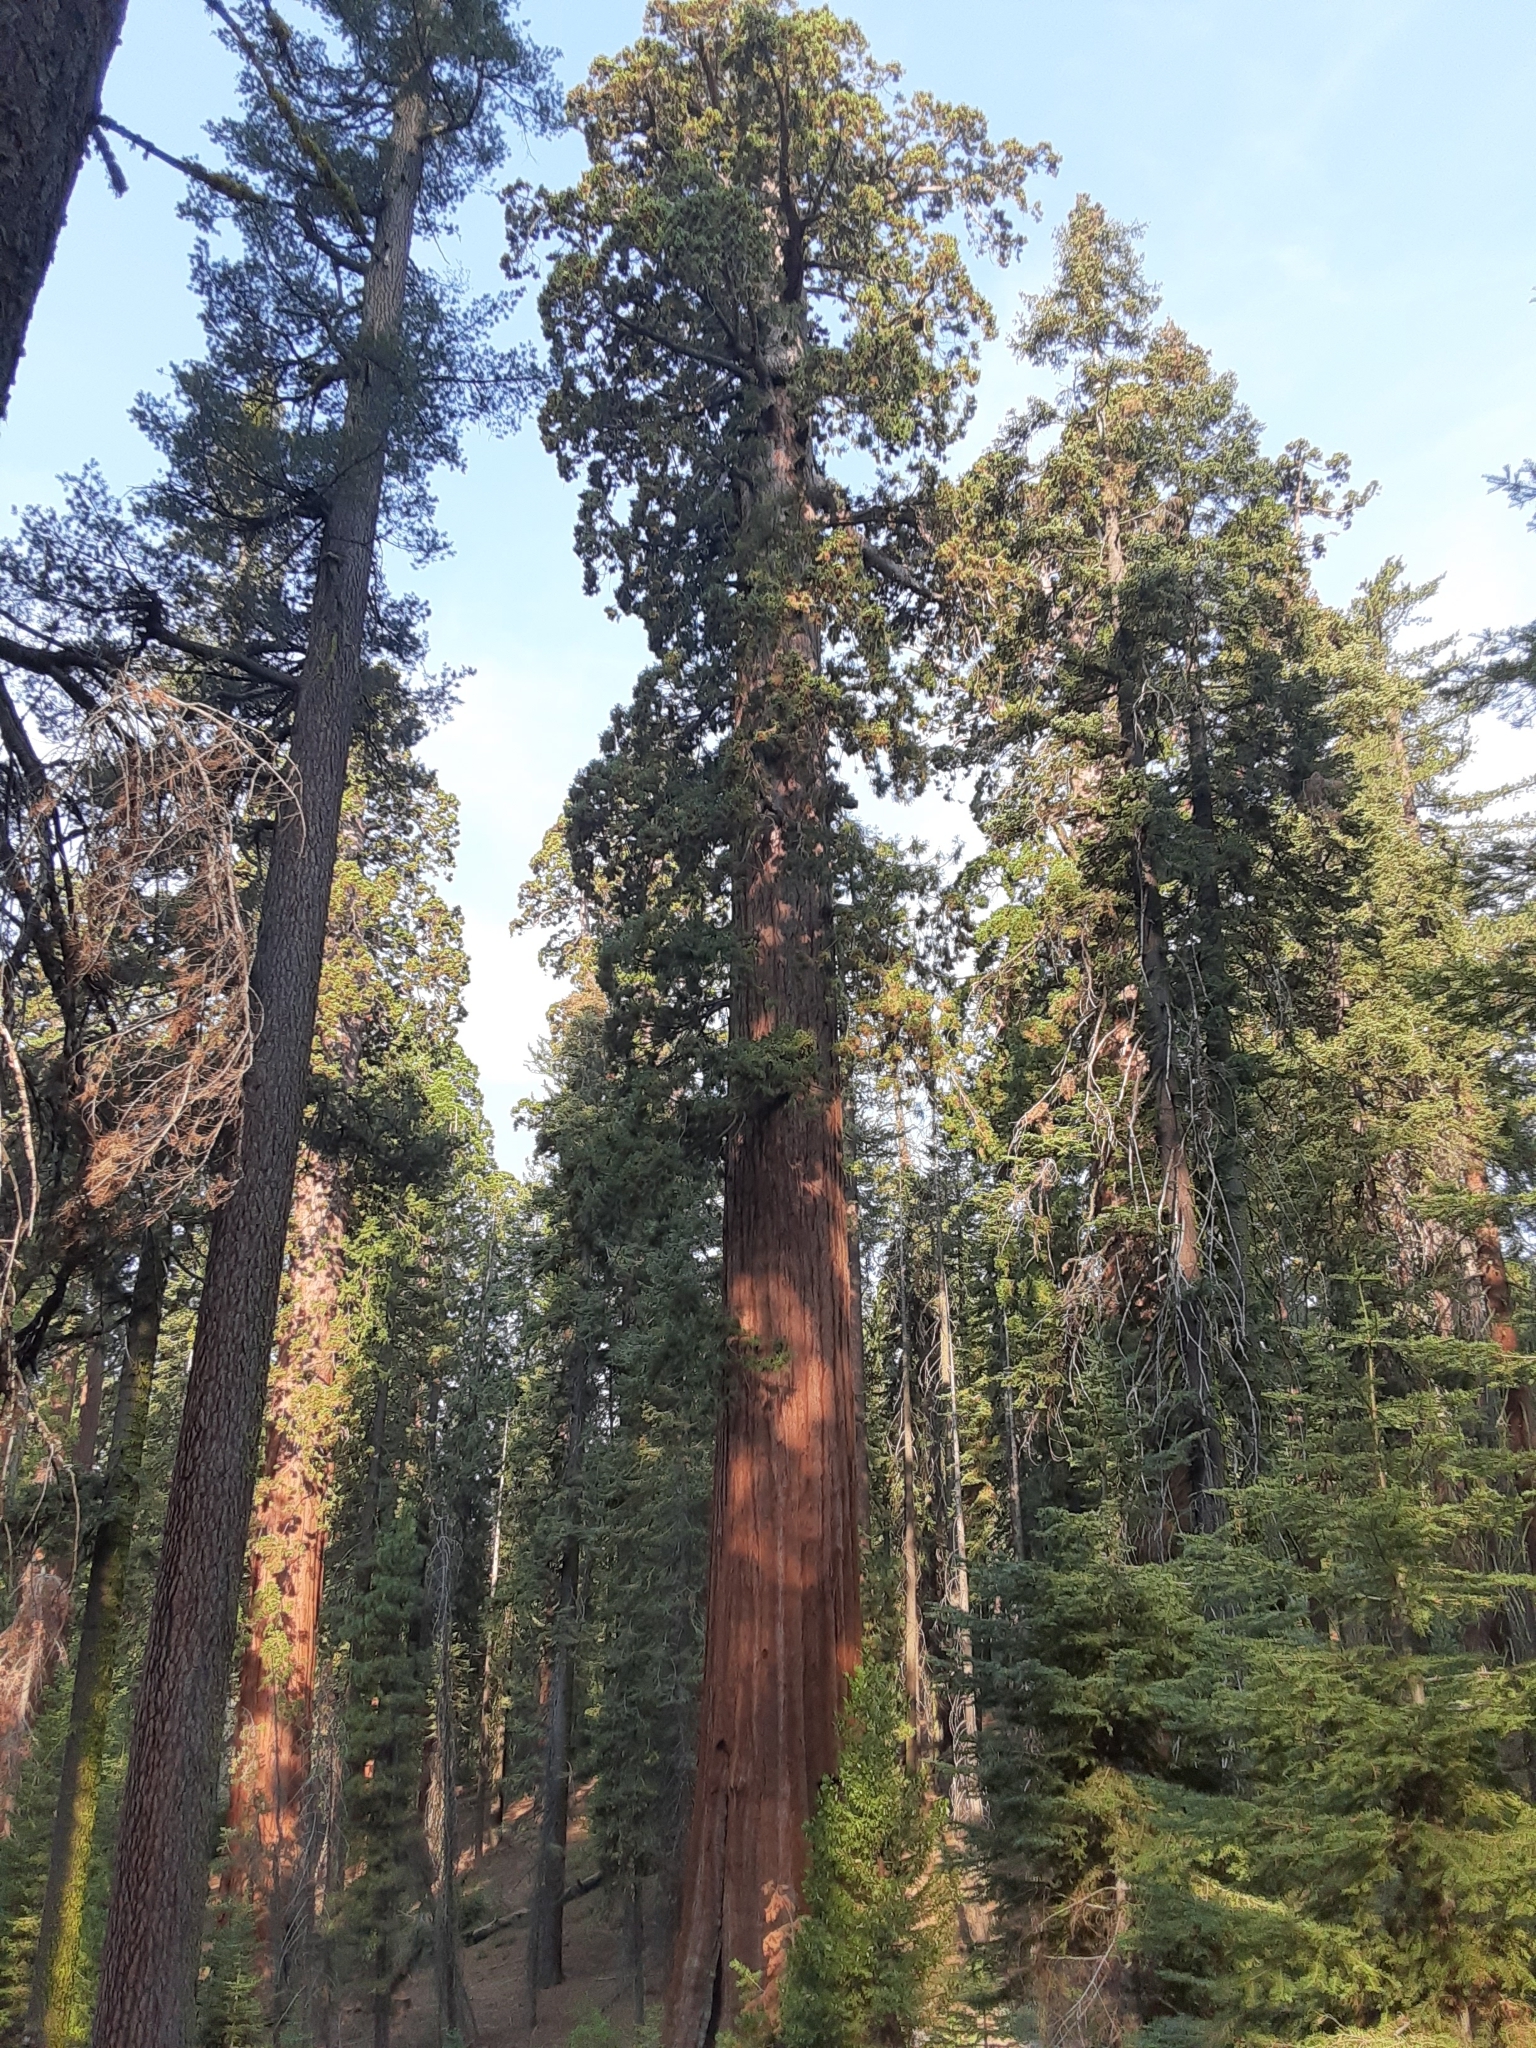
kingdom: Plantae
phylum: Tracheophyta
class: Pinopsida
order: Pinales
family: Cupressaceae
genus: Sequoiadendron
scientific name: Sequoiadendron giganteum
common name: Wellingtonia
